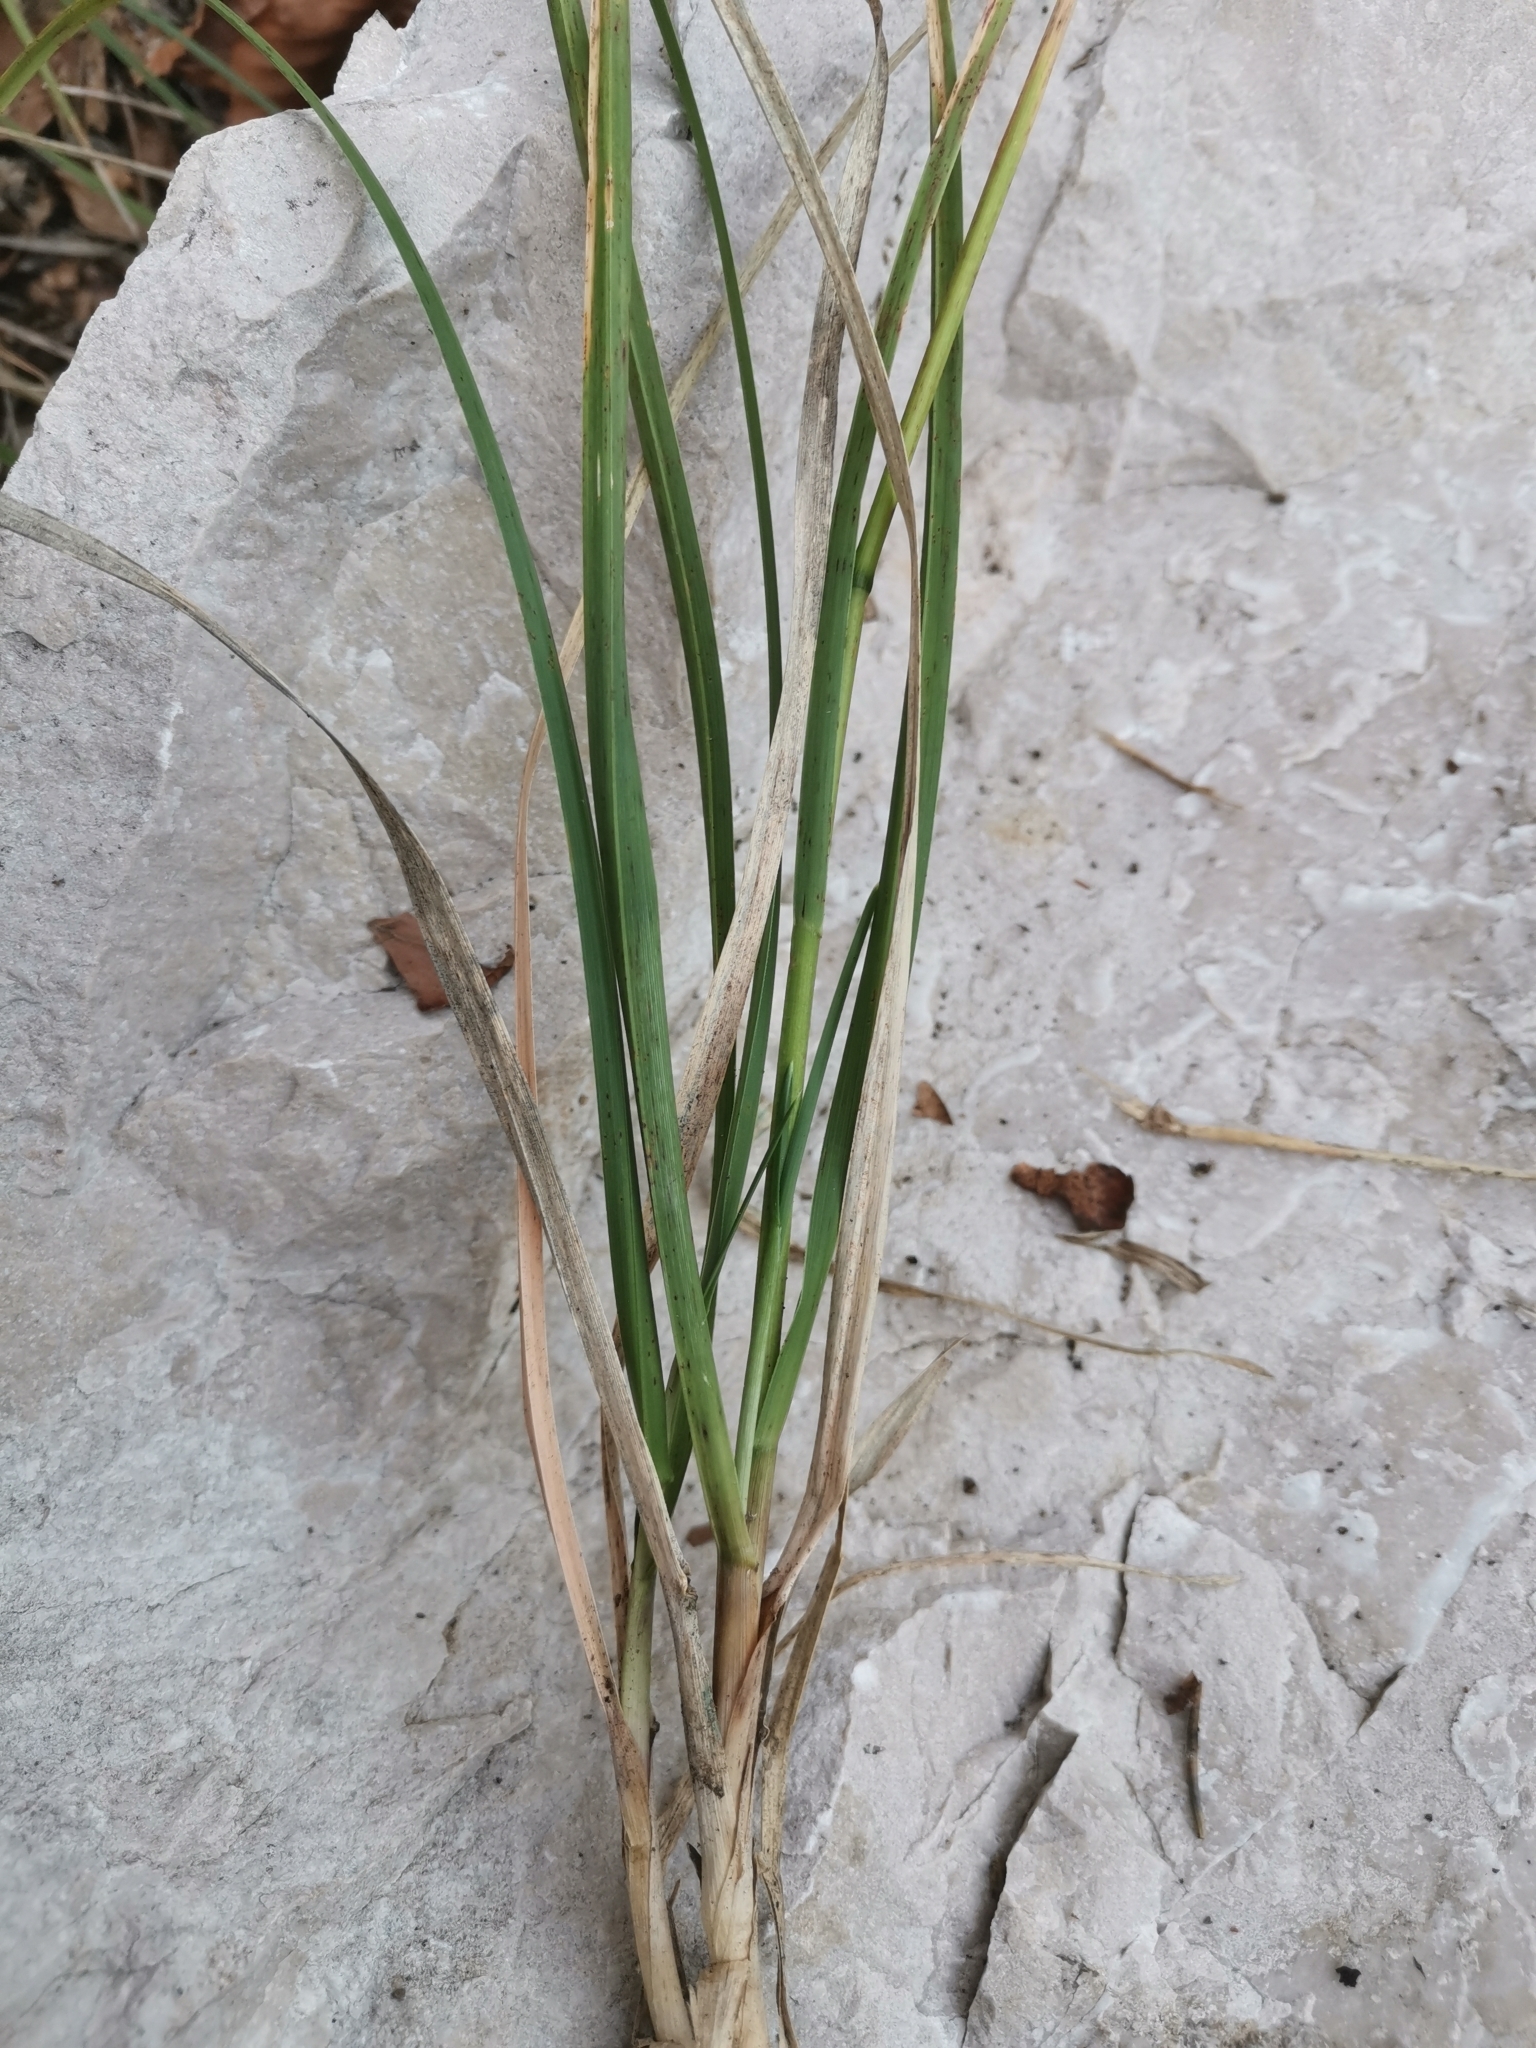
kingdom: Plantae
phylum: Tracheophyta
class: Liliopsida
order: Poales
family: Poaceae
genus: Sesleria
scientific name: Sesleria autumnalis
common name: Autumn moor grass
